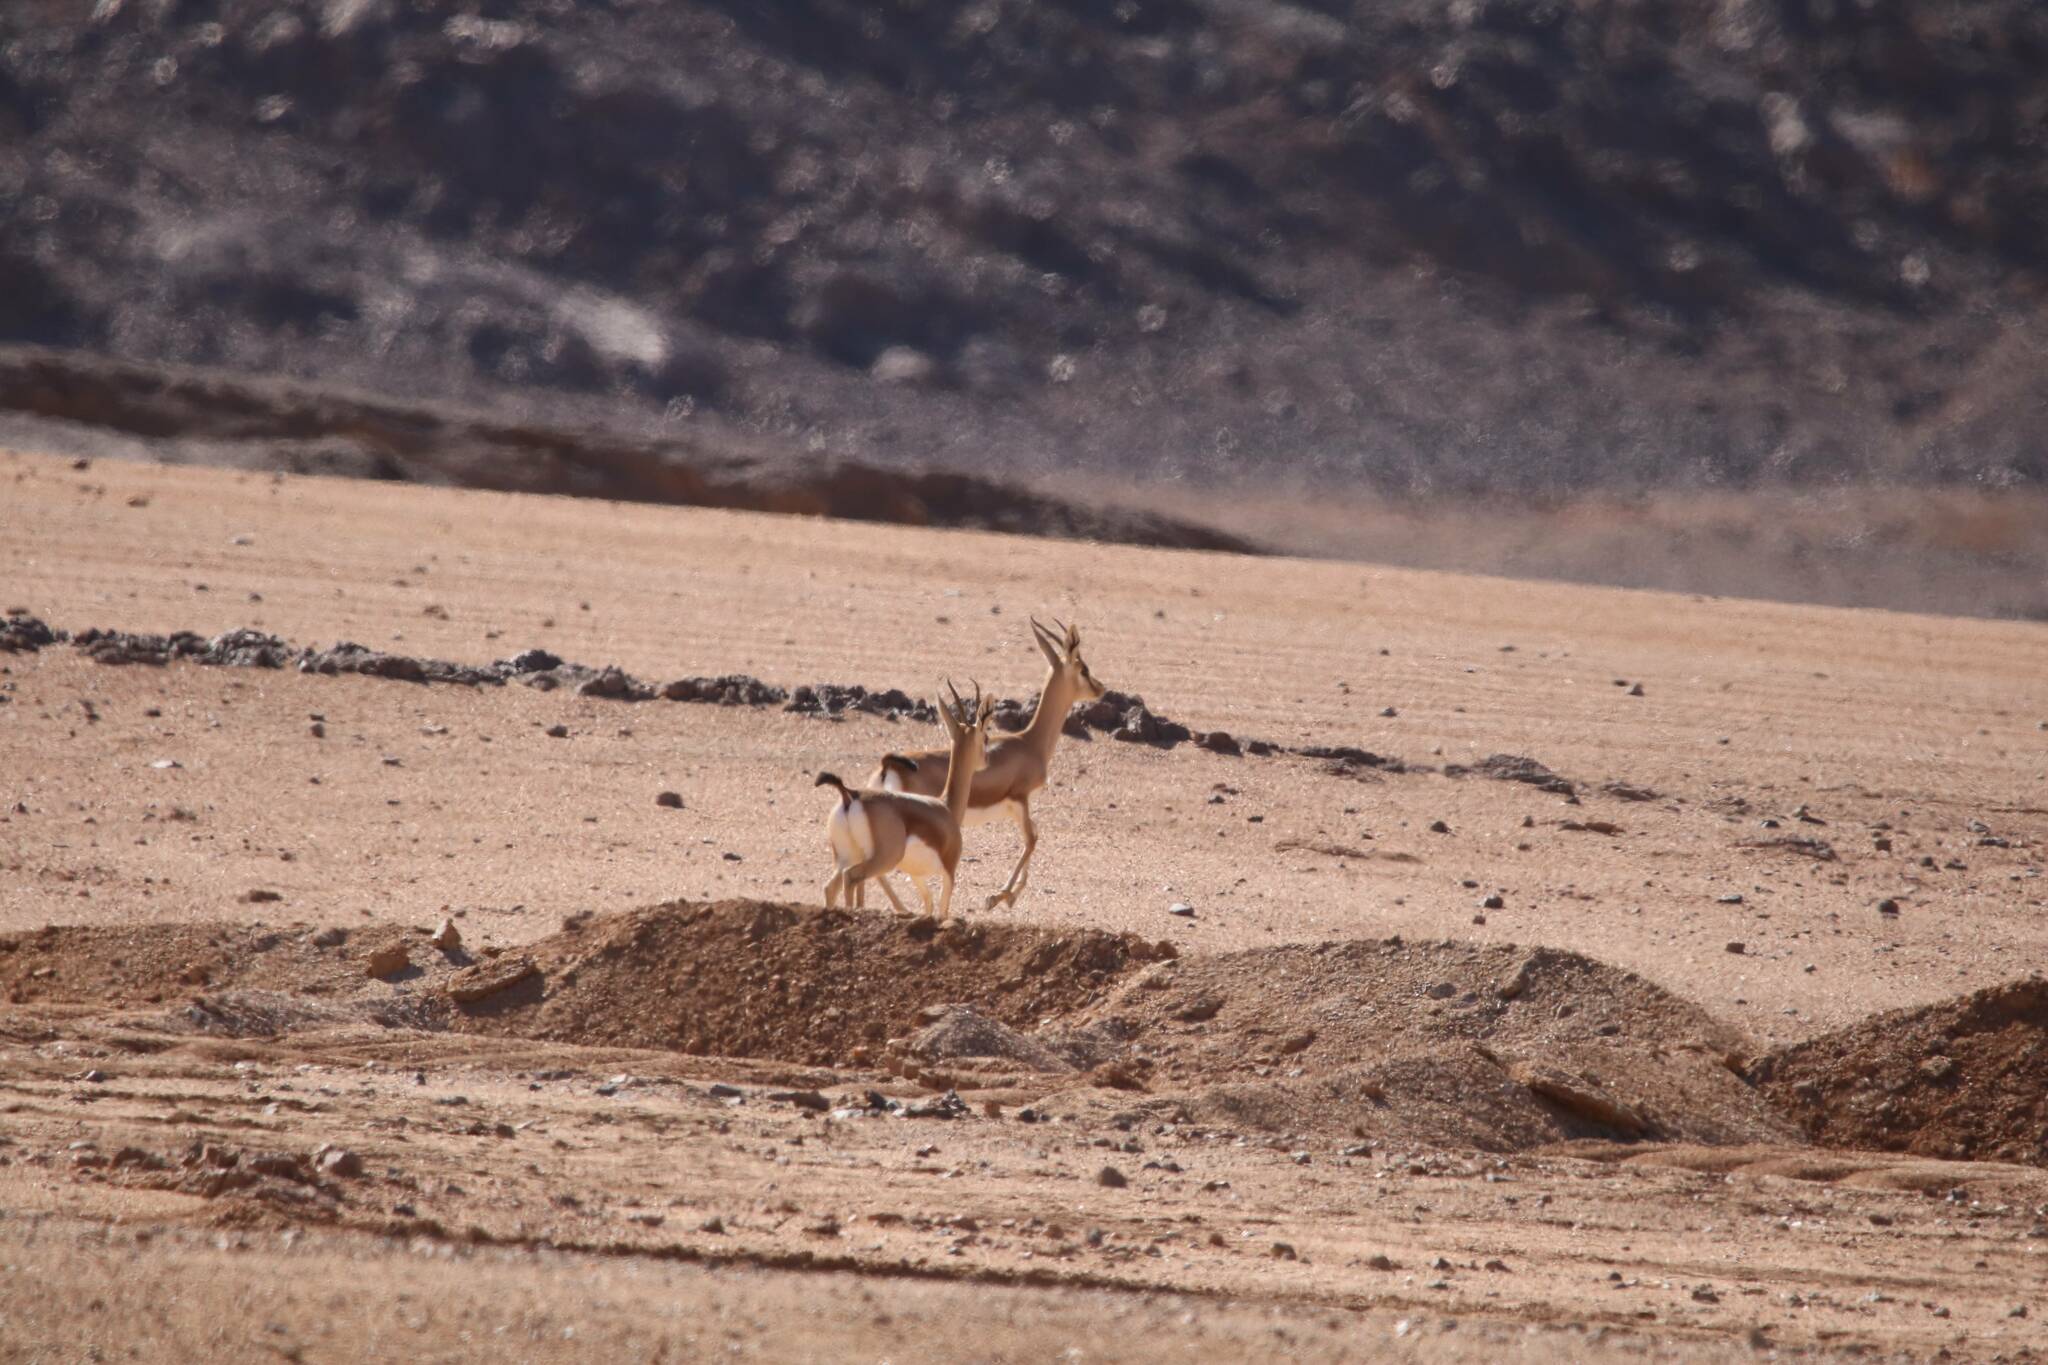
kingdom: Animalia
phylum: Chordata
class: Mammalia
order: Artiodactyla
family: Bovidae
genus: Gazella
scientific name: Gazella dorcas
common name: Dorcas gazelle
